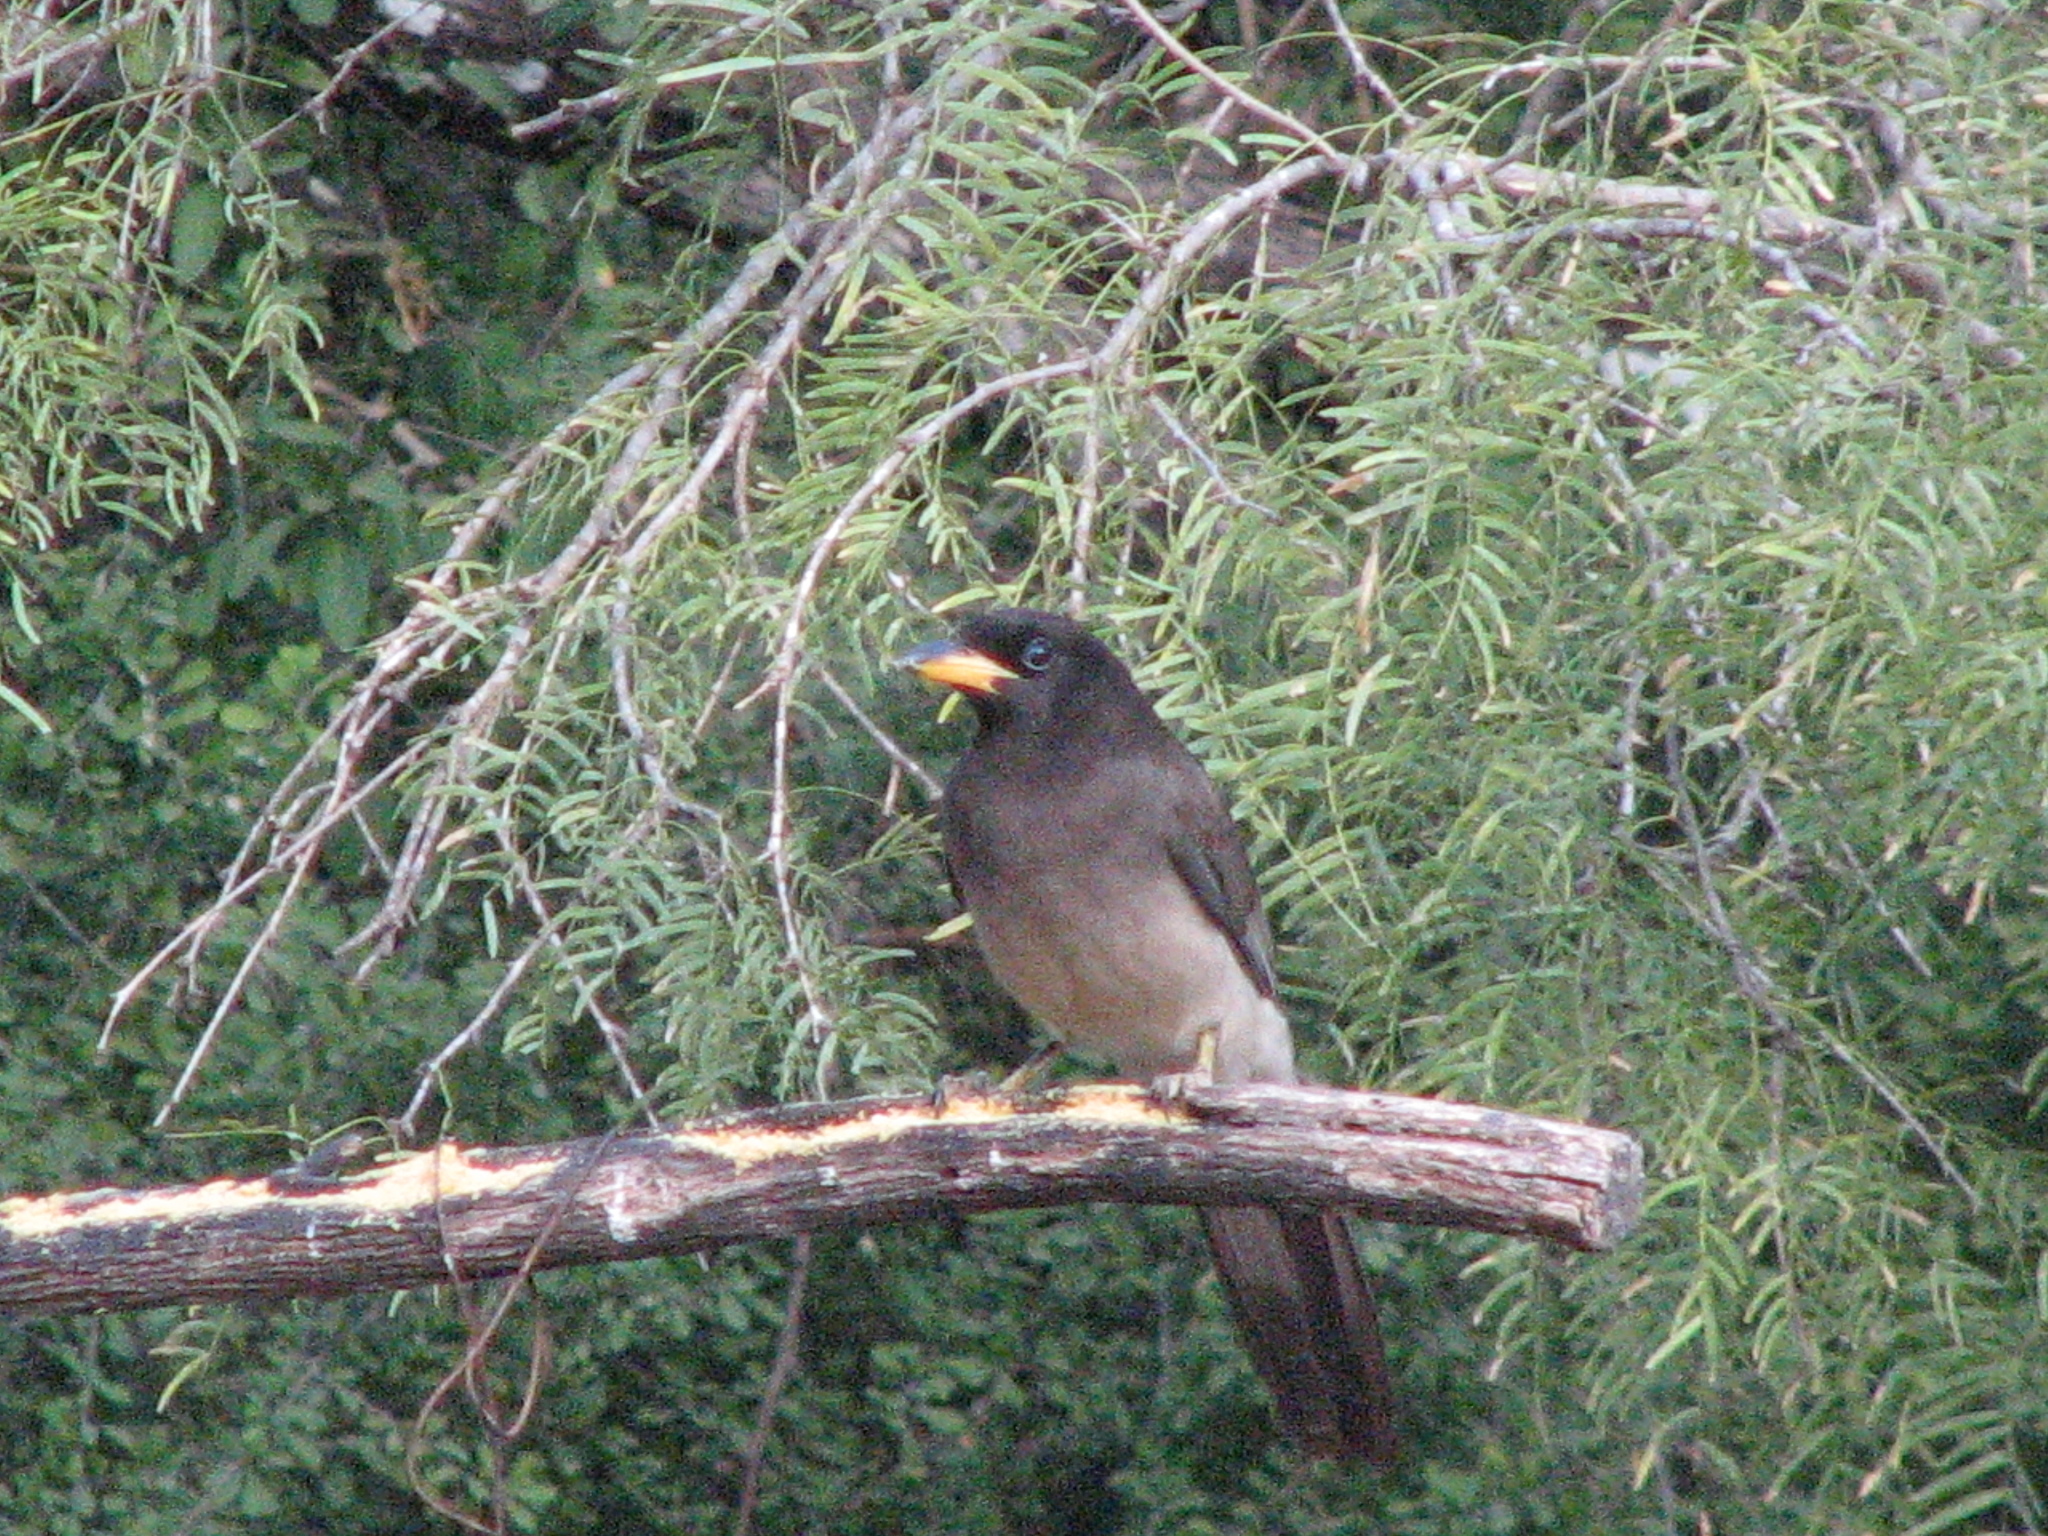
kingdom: Animalia
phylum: Chordata
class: Aves
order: Passeriformes
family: Corvidae
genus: Psilorhinus
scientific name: Psilorhinus morio
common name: Brown jay
